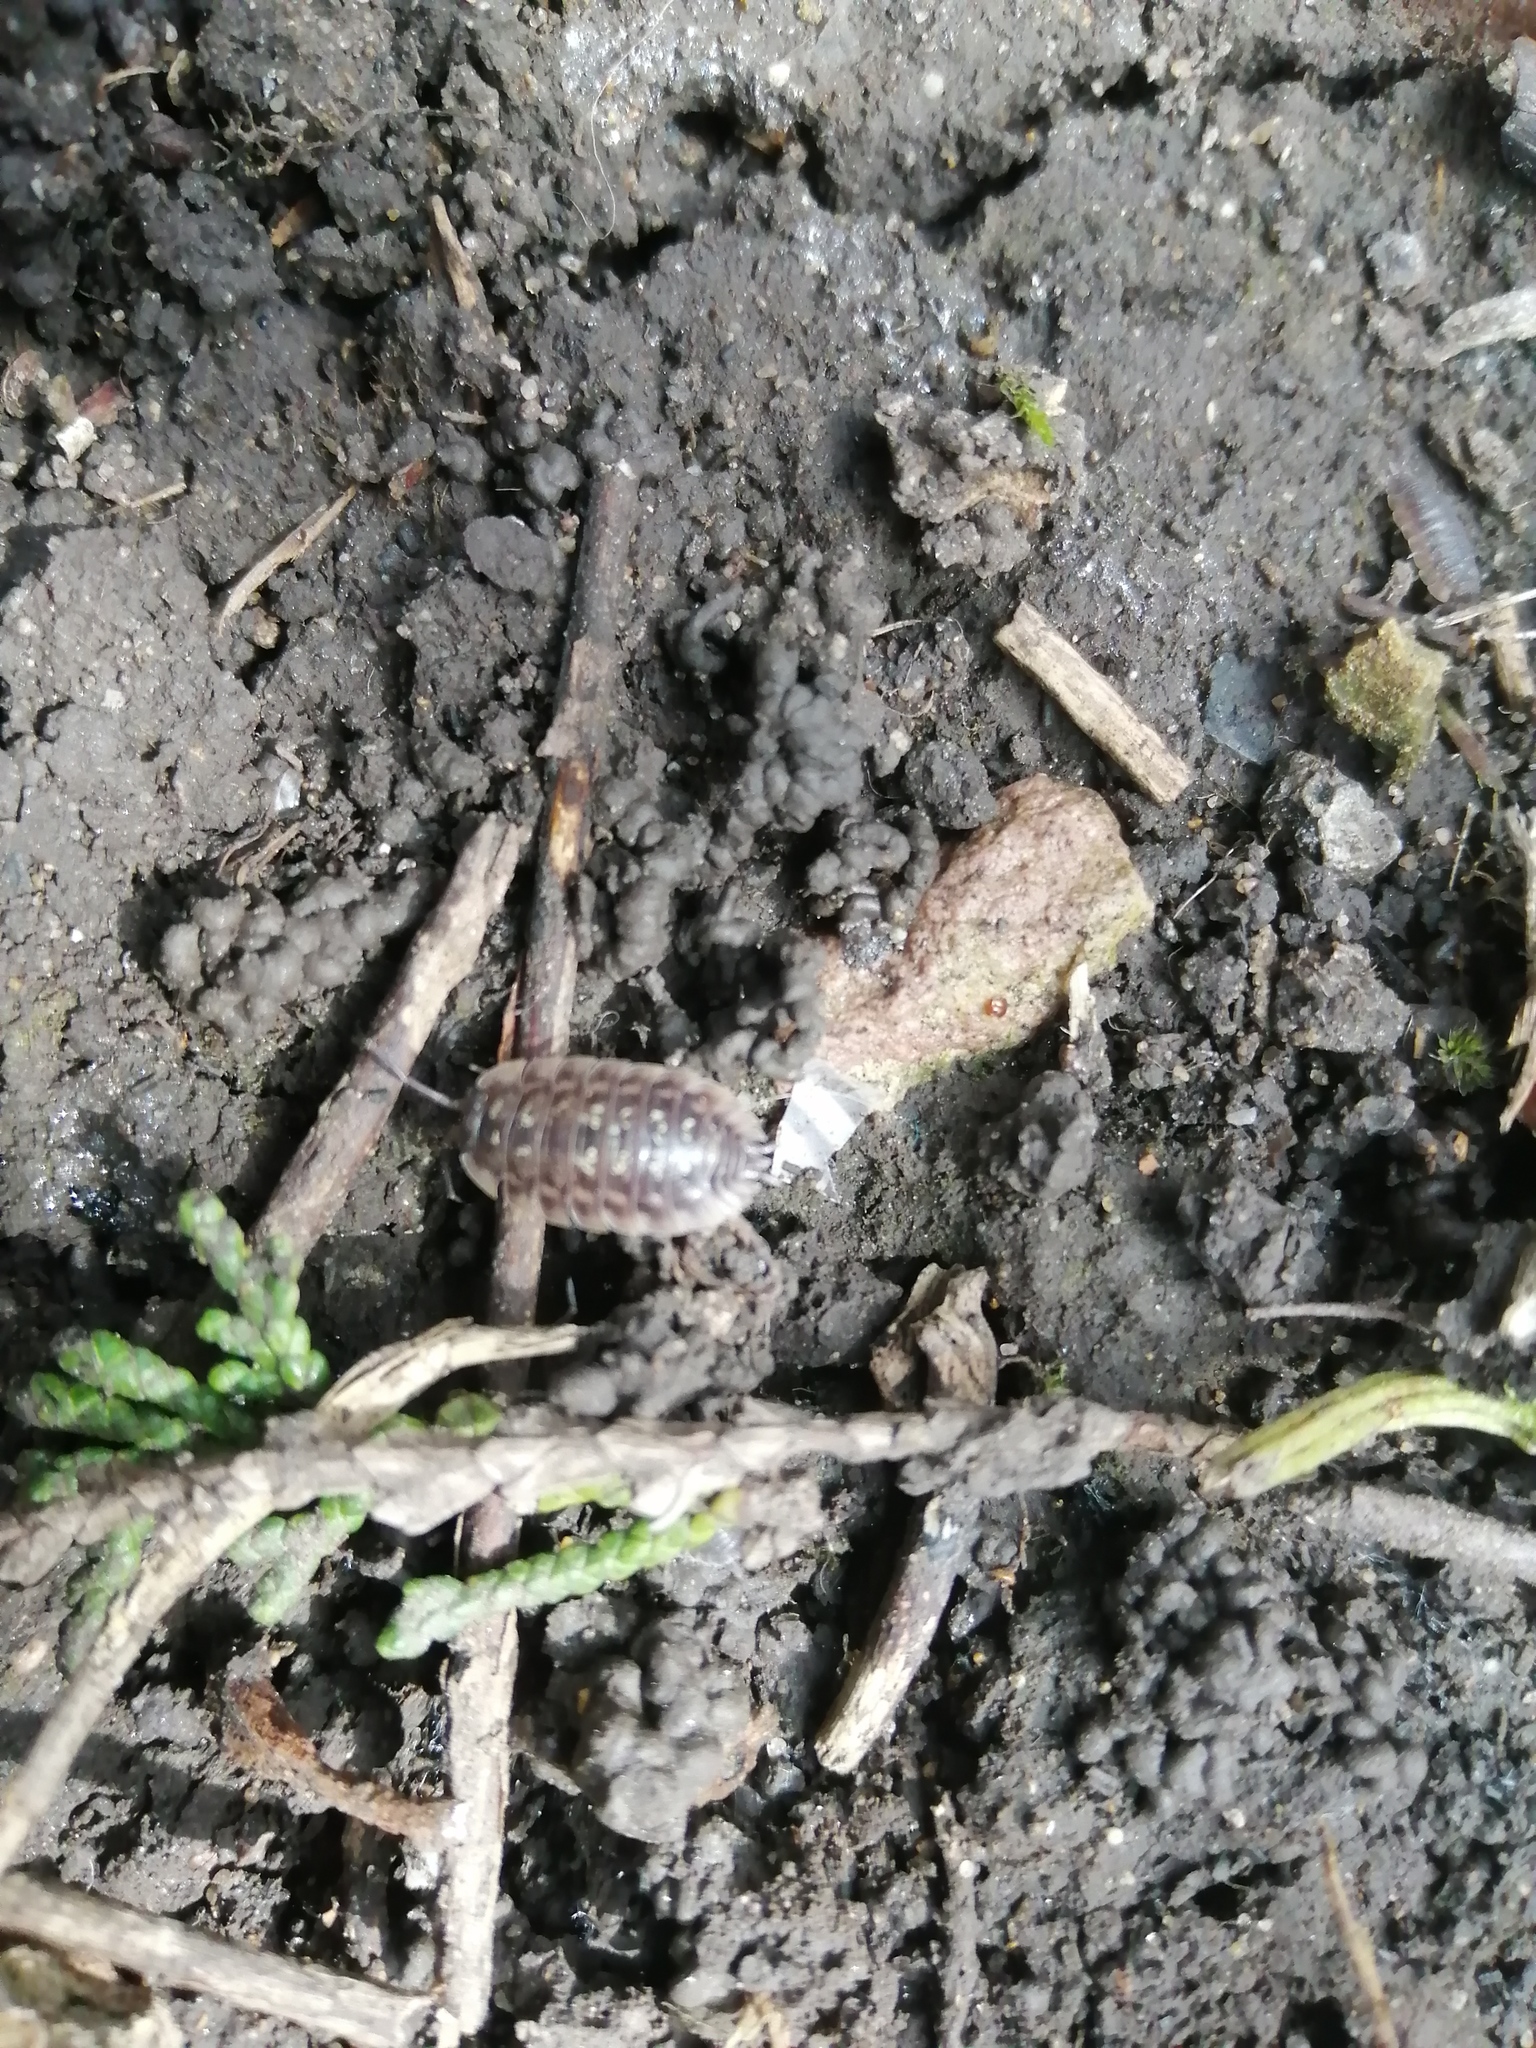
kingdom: Animalia
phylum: Arthropoda
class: Malacostraca
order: Isopoda
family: Oniscidae
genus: Oniscus
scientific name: Oniscus asellus
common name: Common shiny woodlouse
